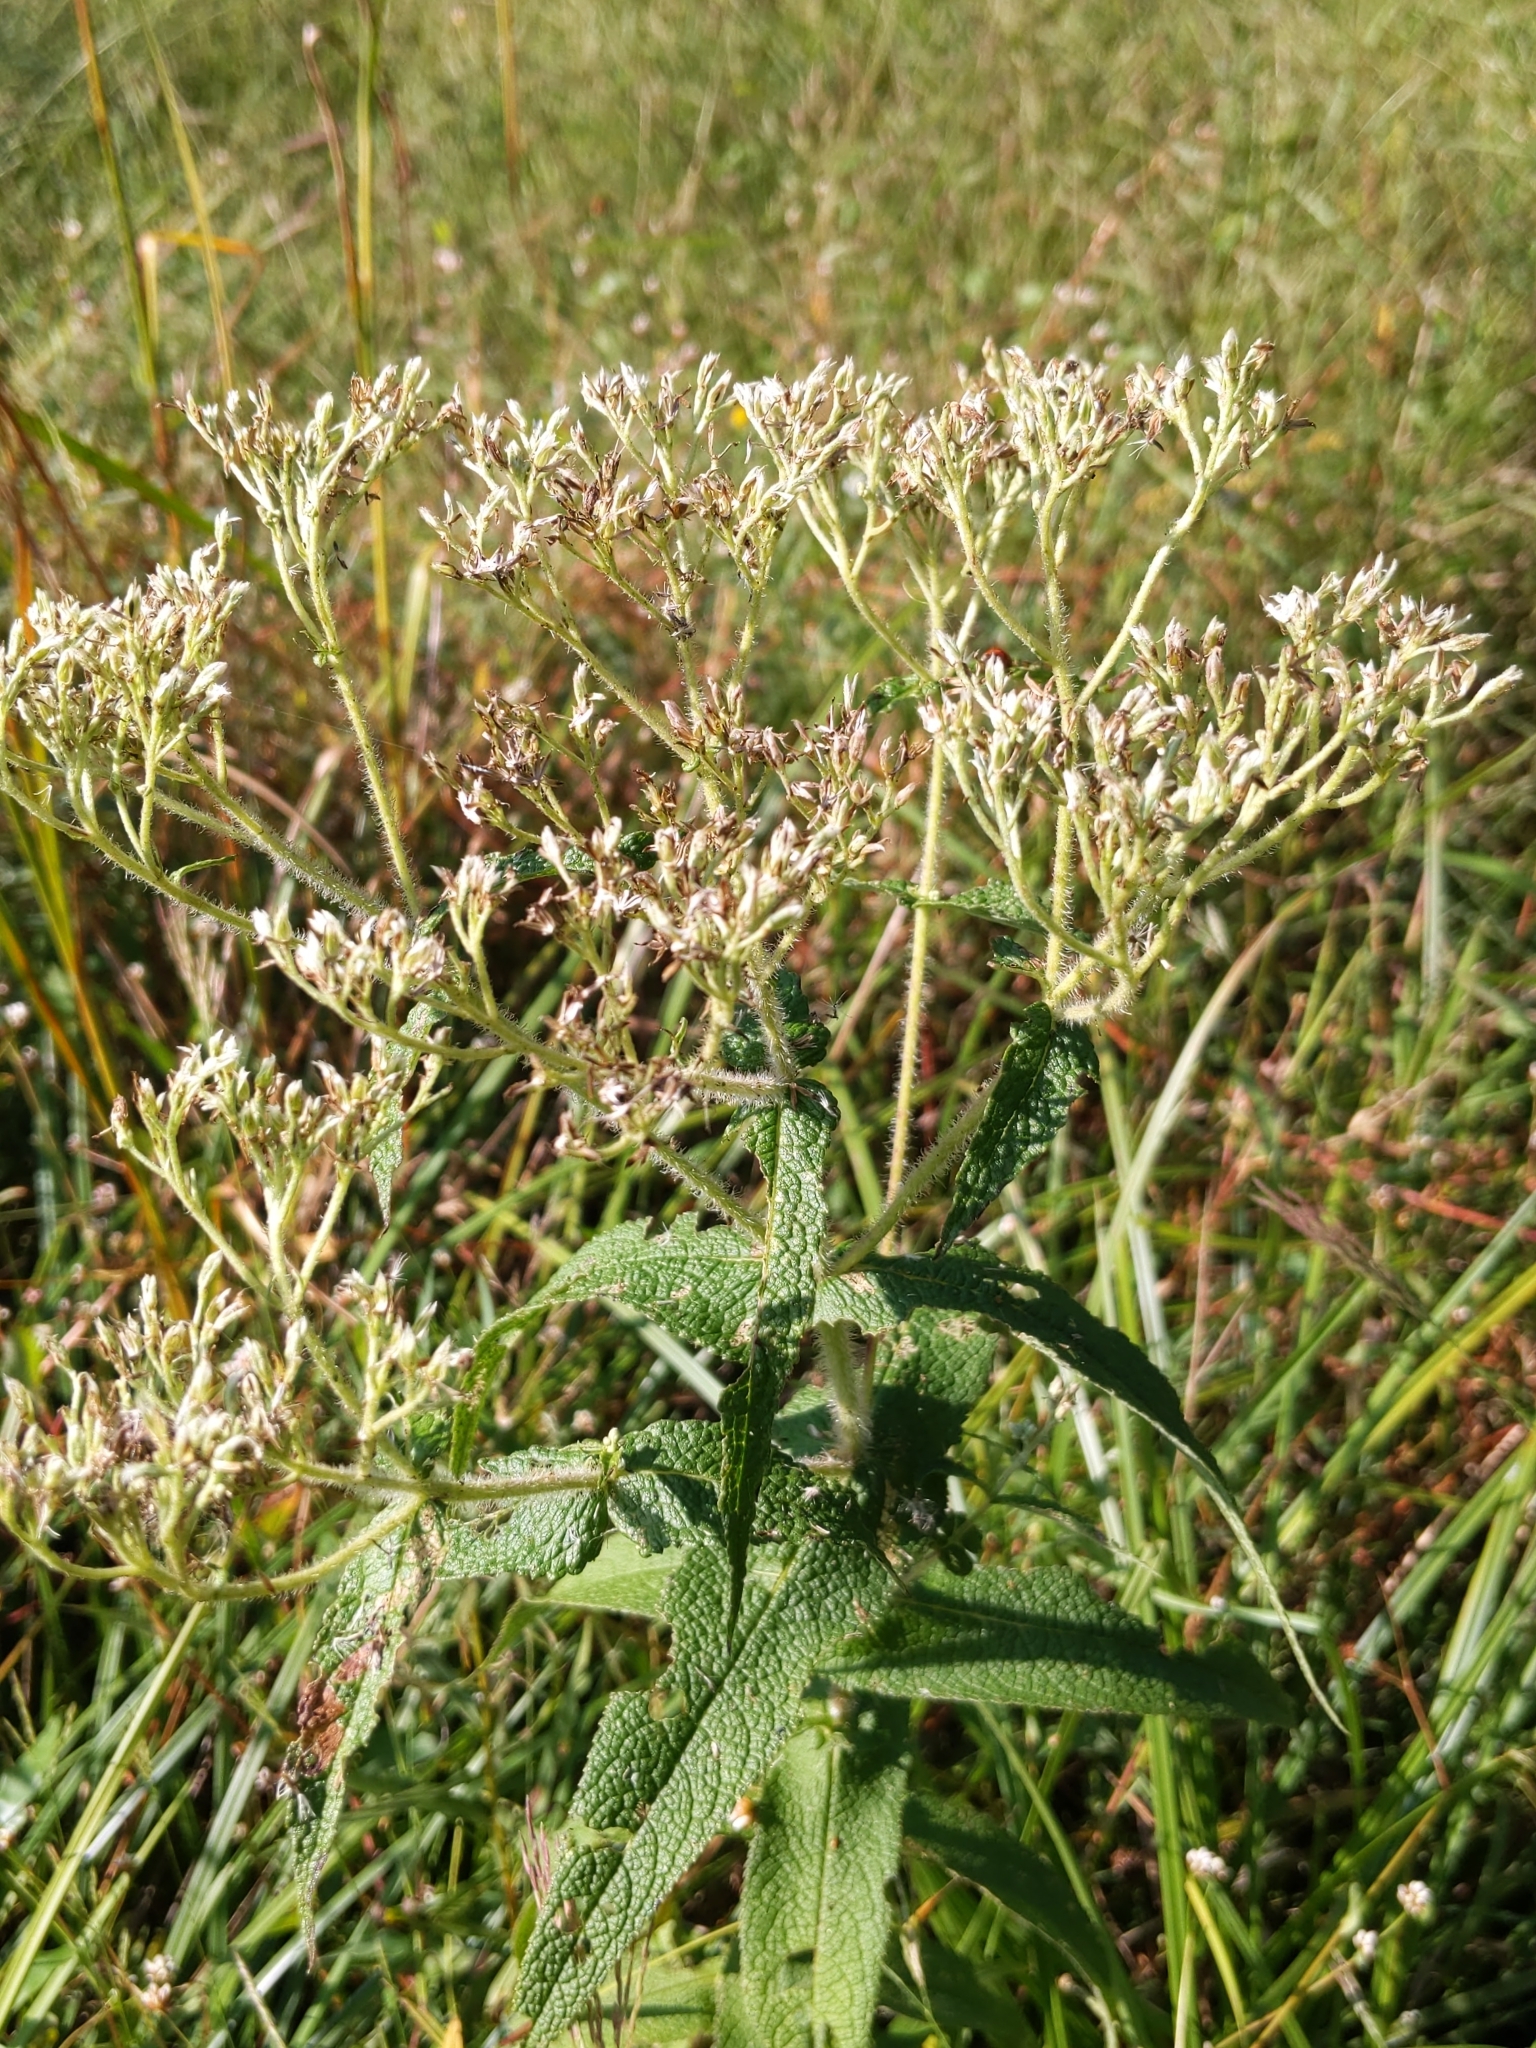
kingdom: Plantae
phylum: Tracheophyta
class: Magnoliopsida
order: Asterales
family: Asteraceae
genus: Eupatorium
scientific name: Eupatorium perfoliatum
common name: Boneset
